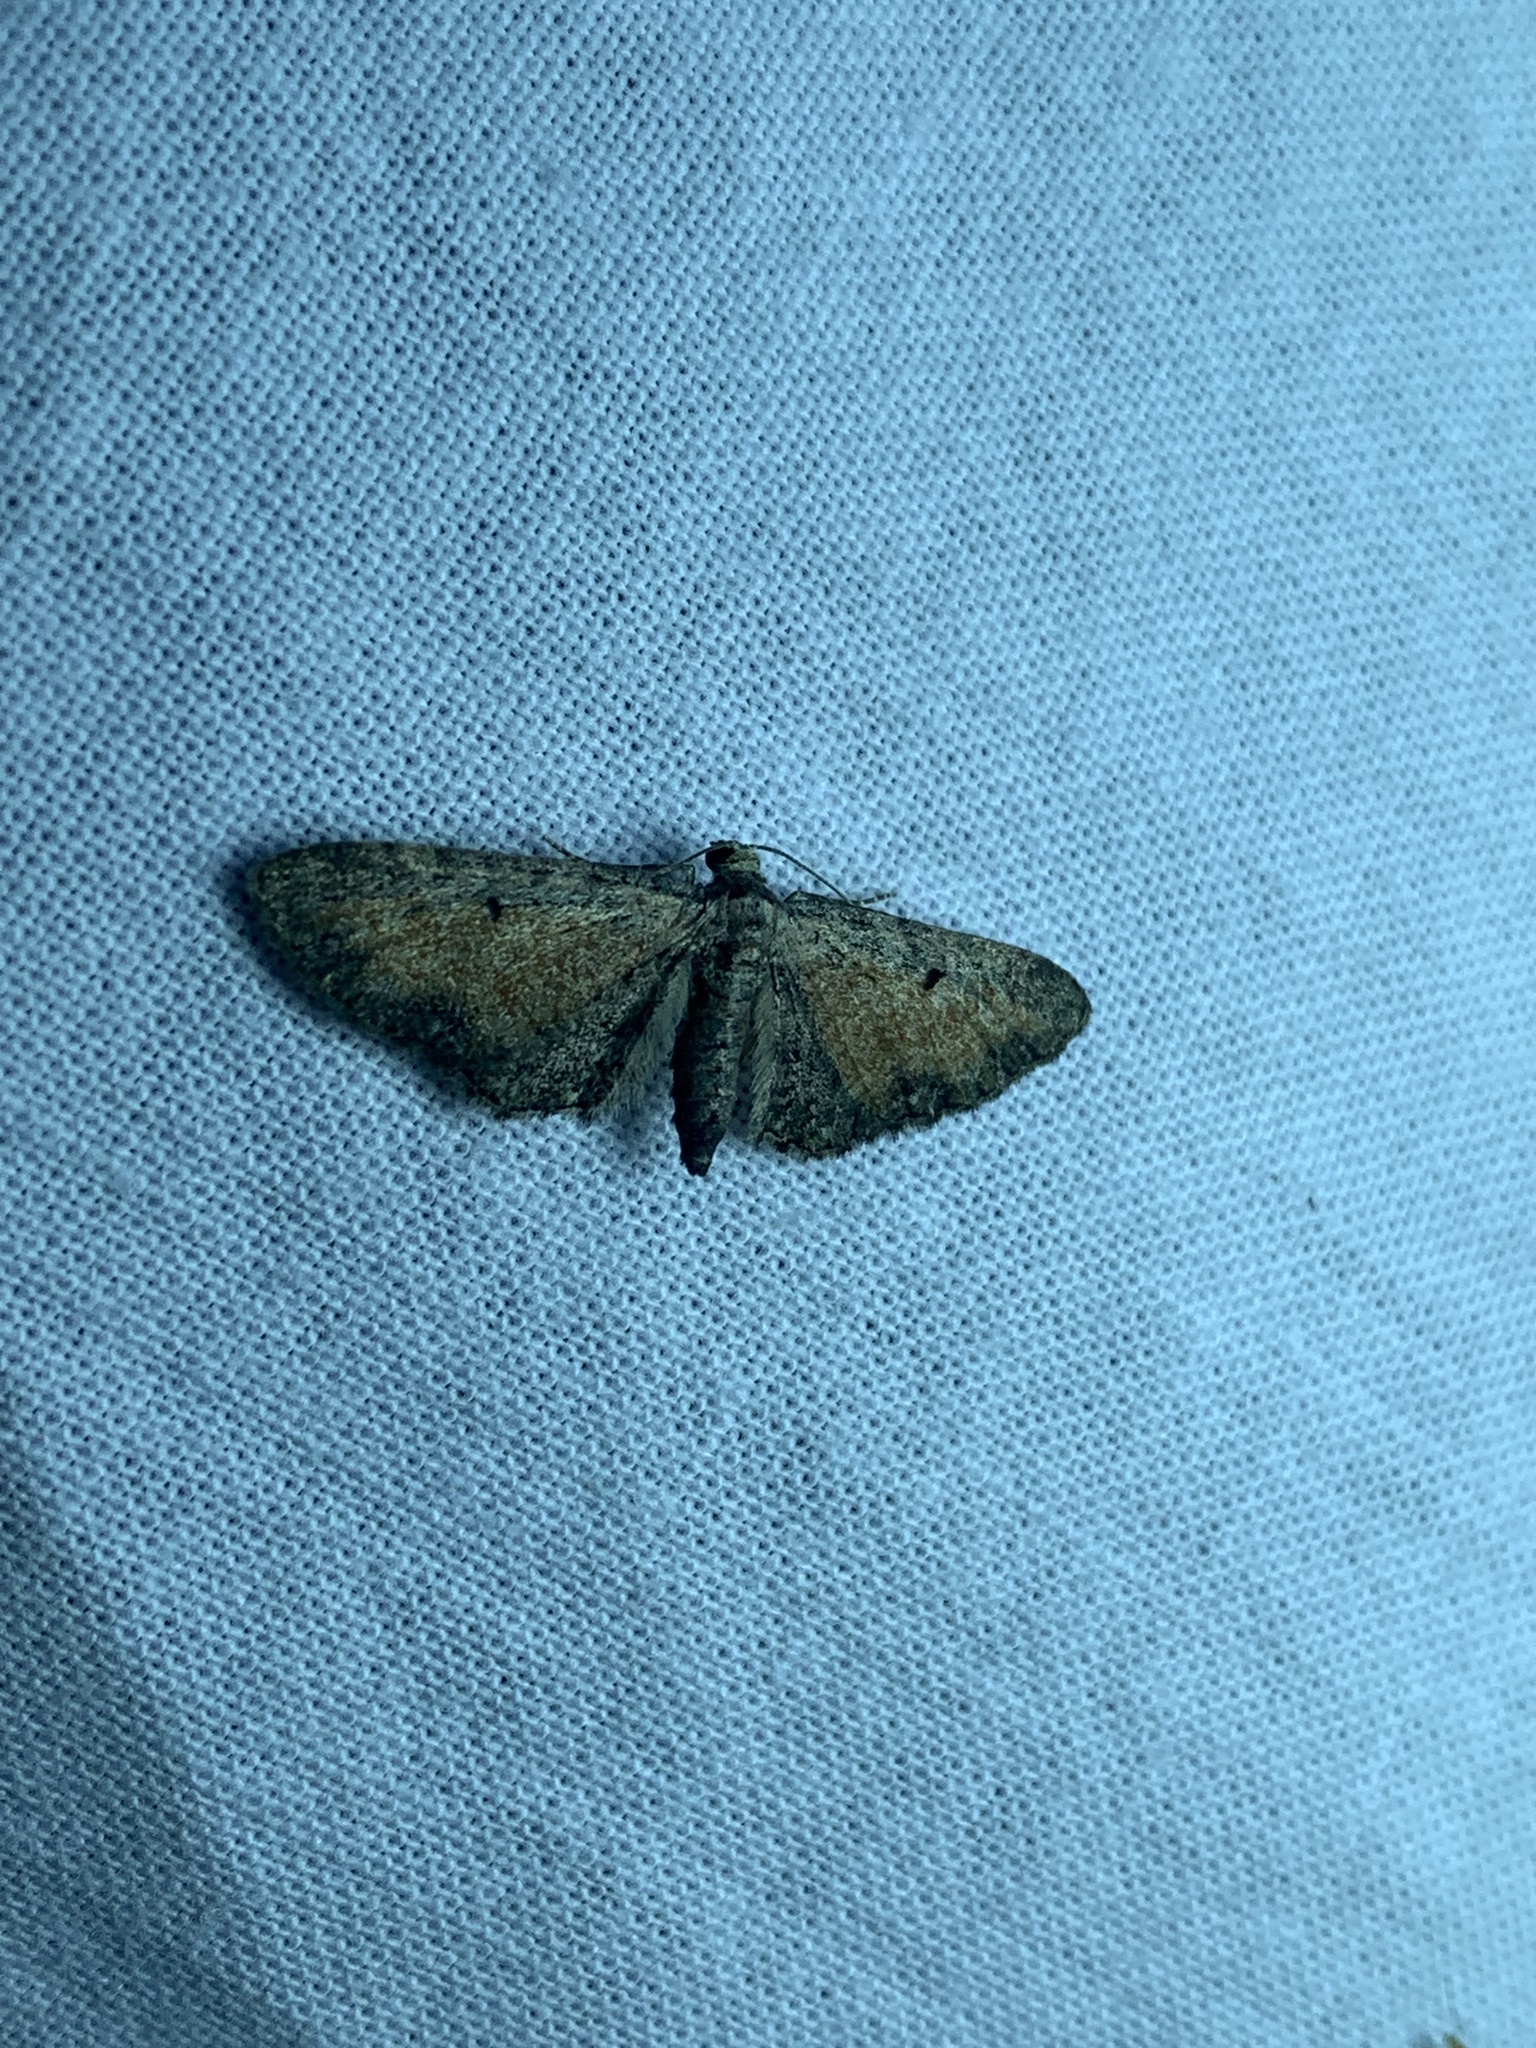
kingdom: Animalia
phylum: Arthropoda
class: Insecta
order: Lepidoptera
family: Geometridae
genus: Eupithecia
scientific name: Eupithecia icterata
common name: Tawny speckled pug
